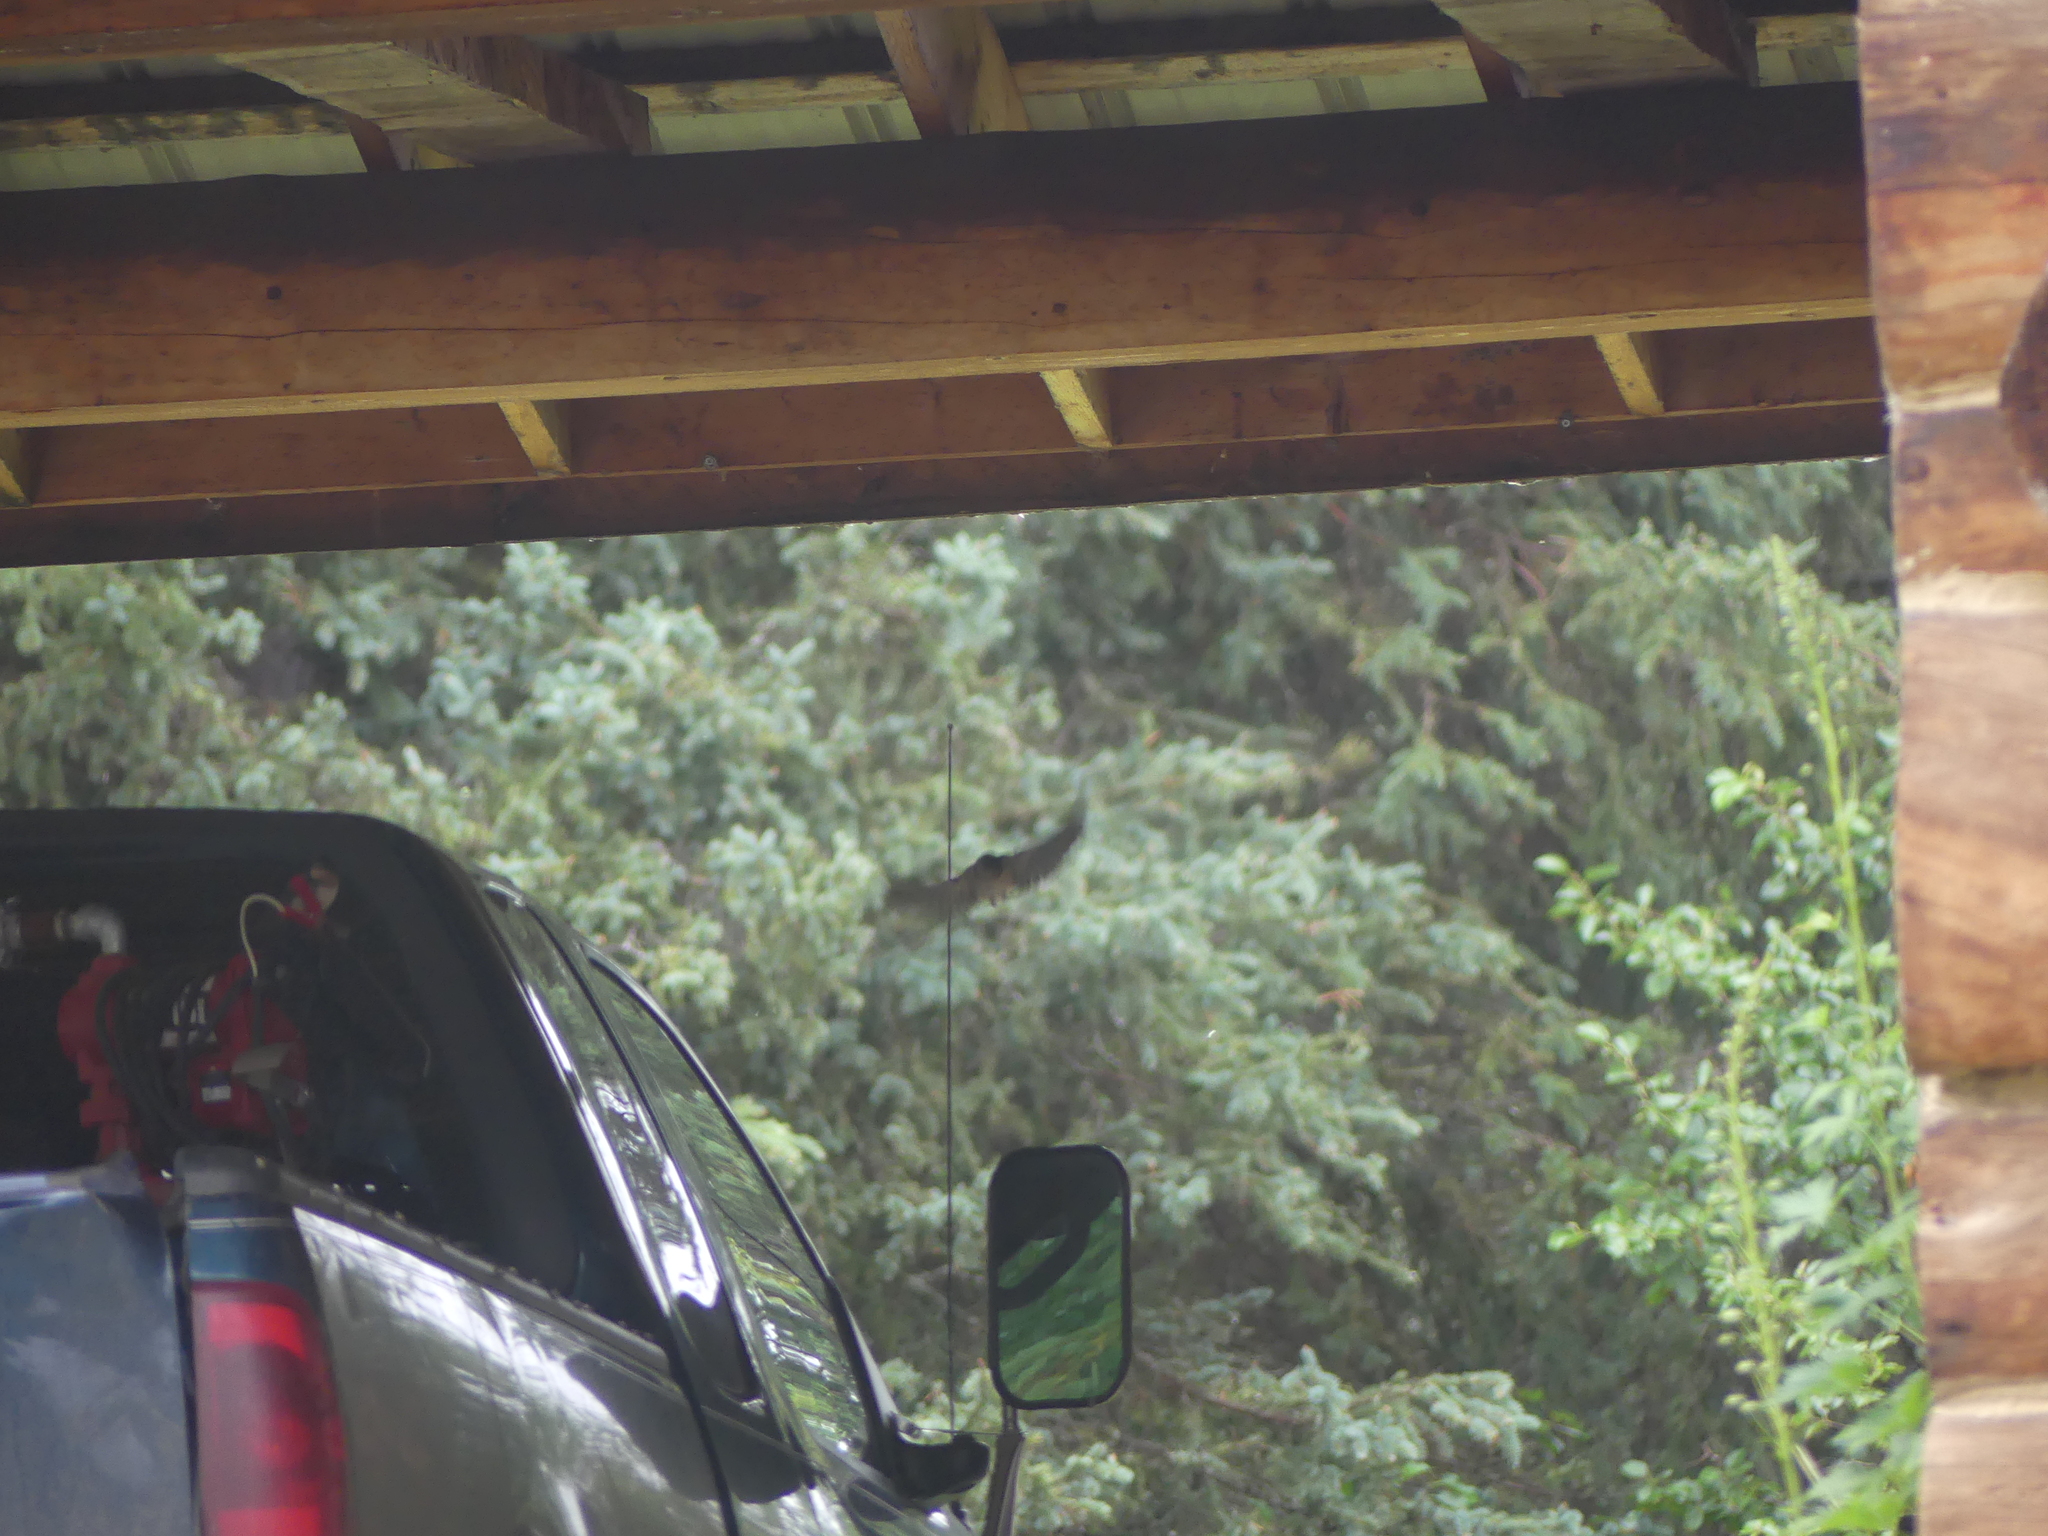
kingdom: Animalia
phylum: Chordata
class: Aves
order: Passeriformes
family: Hirundinidae
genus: Hirundo
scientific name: Hirundo rustica
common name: Barn swallow
